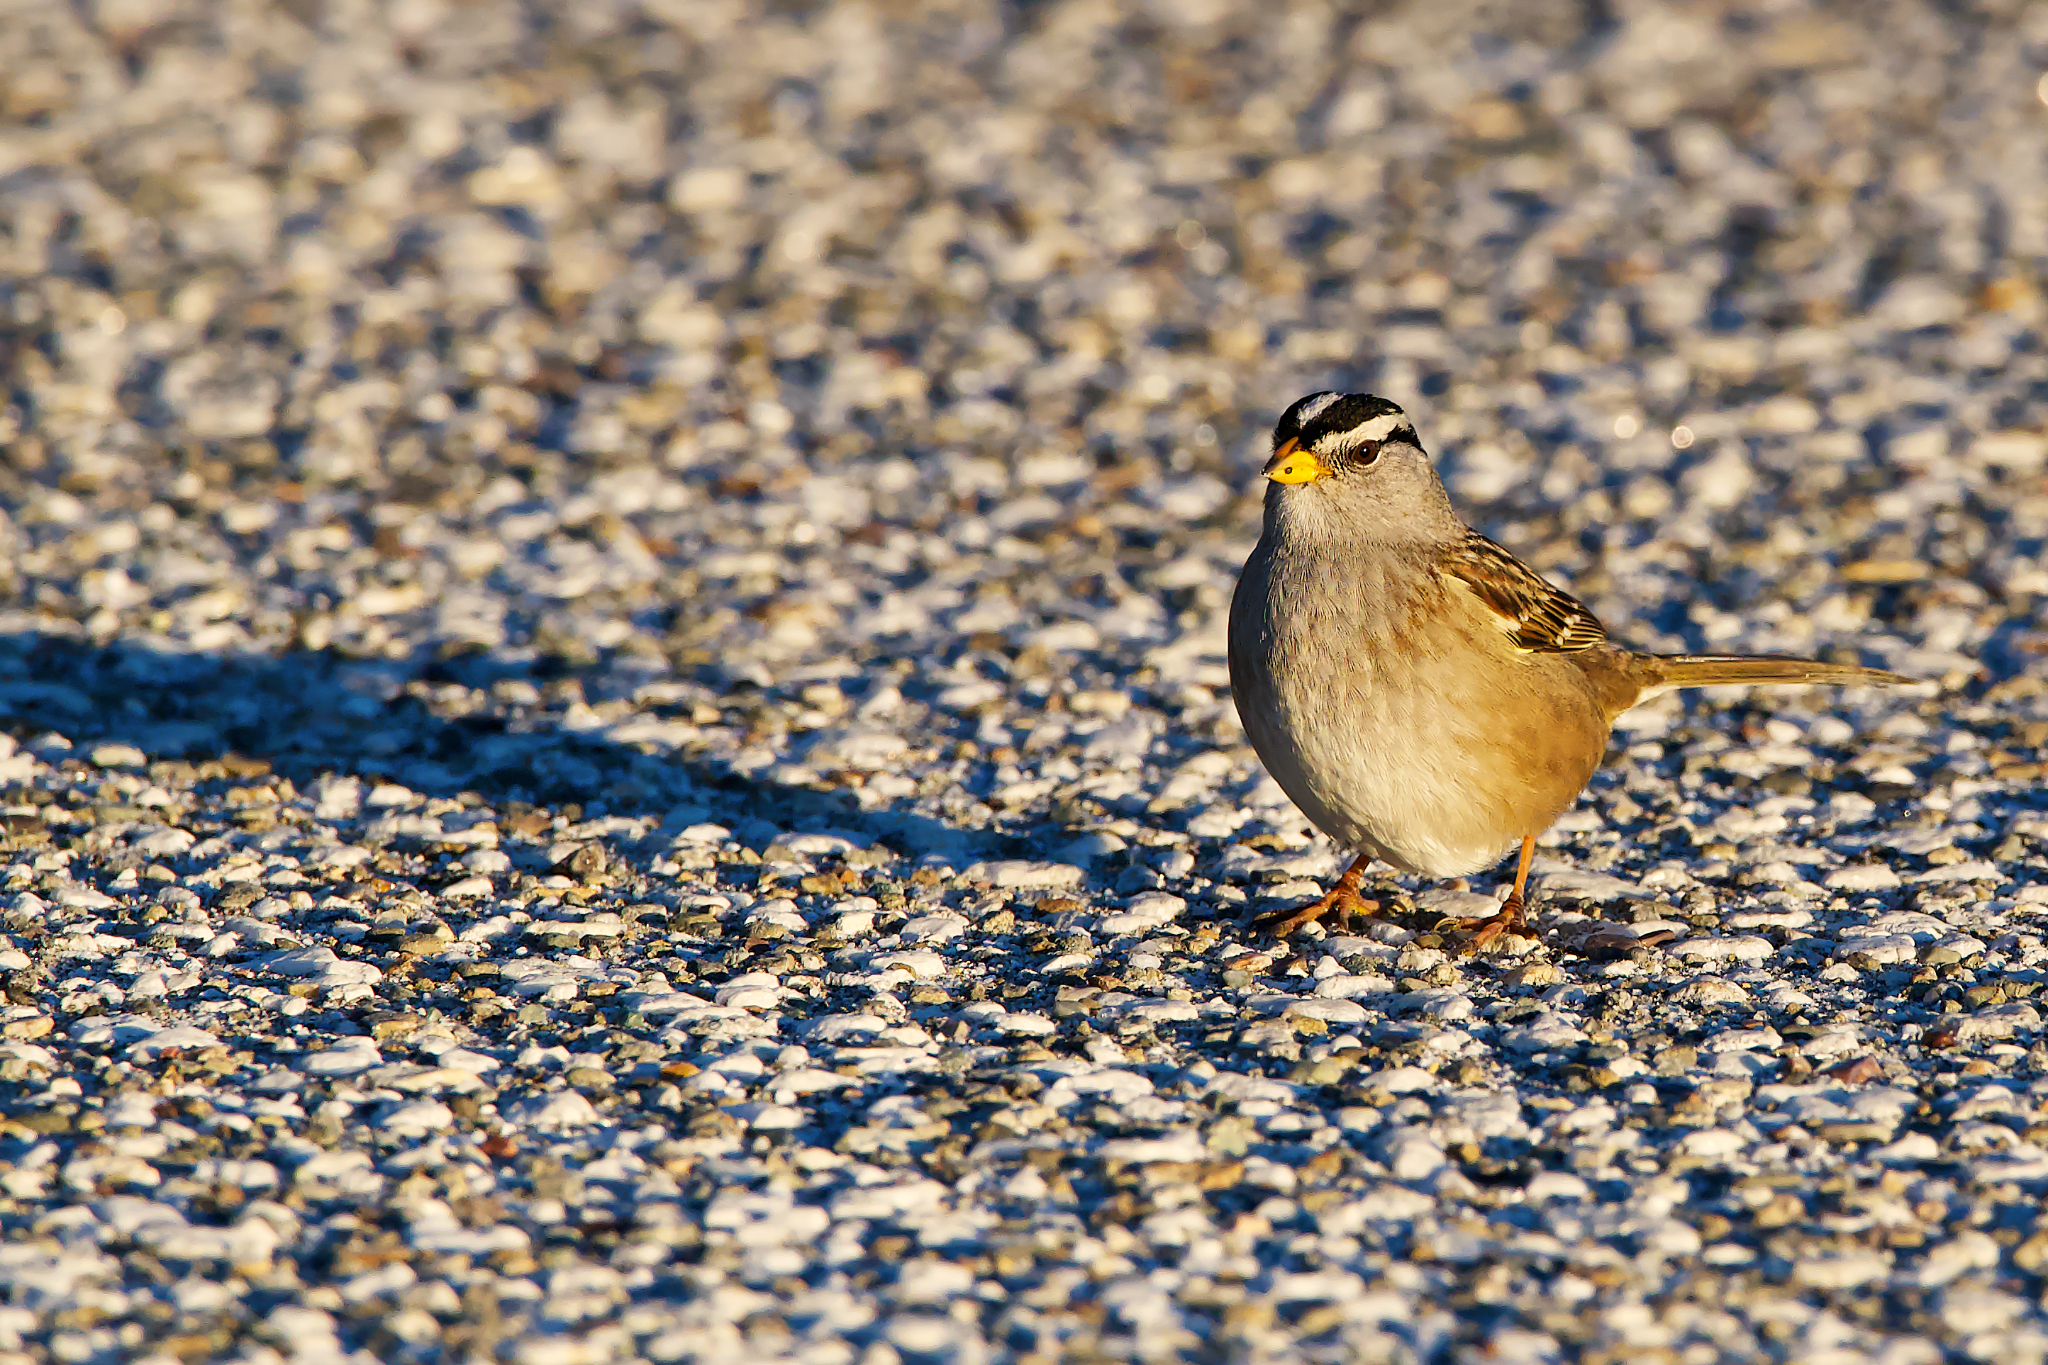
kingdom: Animalia
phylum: Chordata
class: Aves
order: Passeriformes
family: Passerellidae
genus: Zonotrichia
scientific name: Zonotrichia leucophrys
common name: White-crowned sparrow
